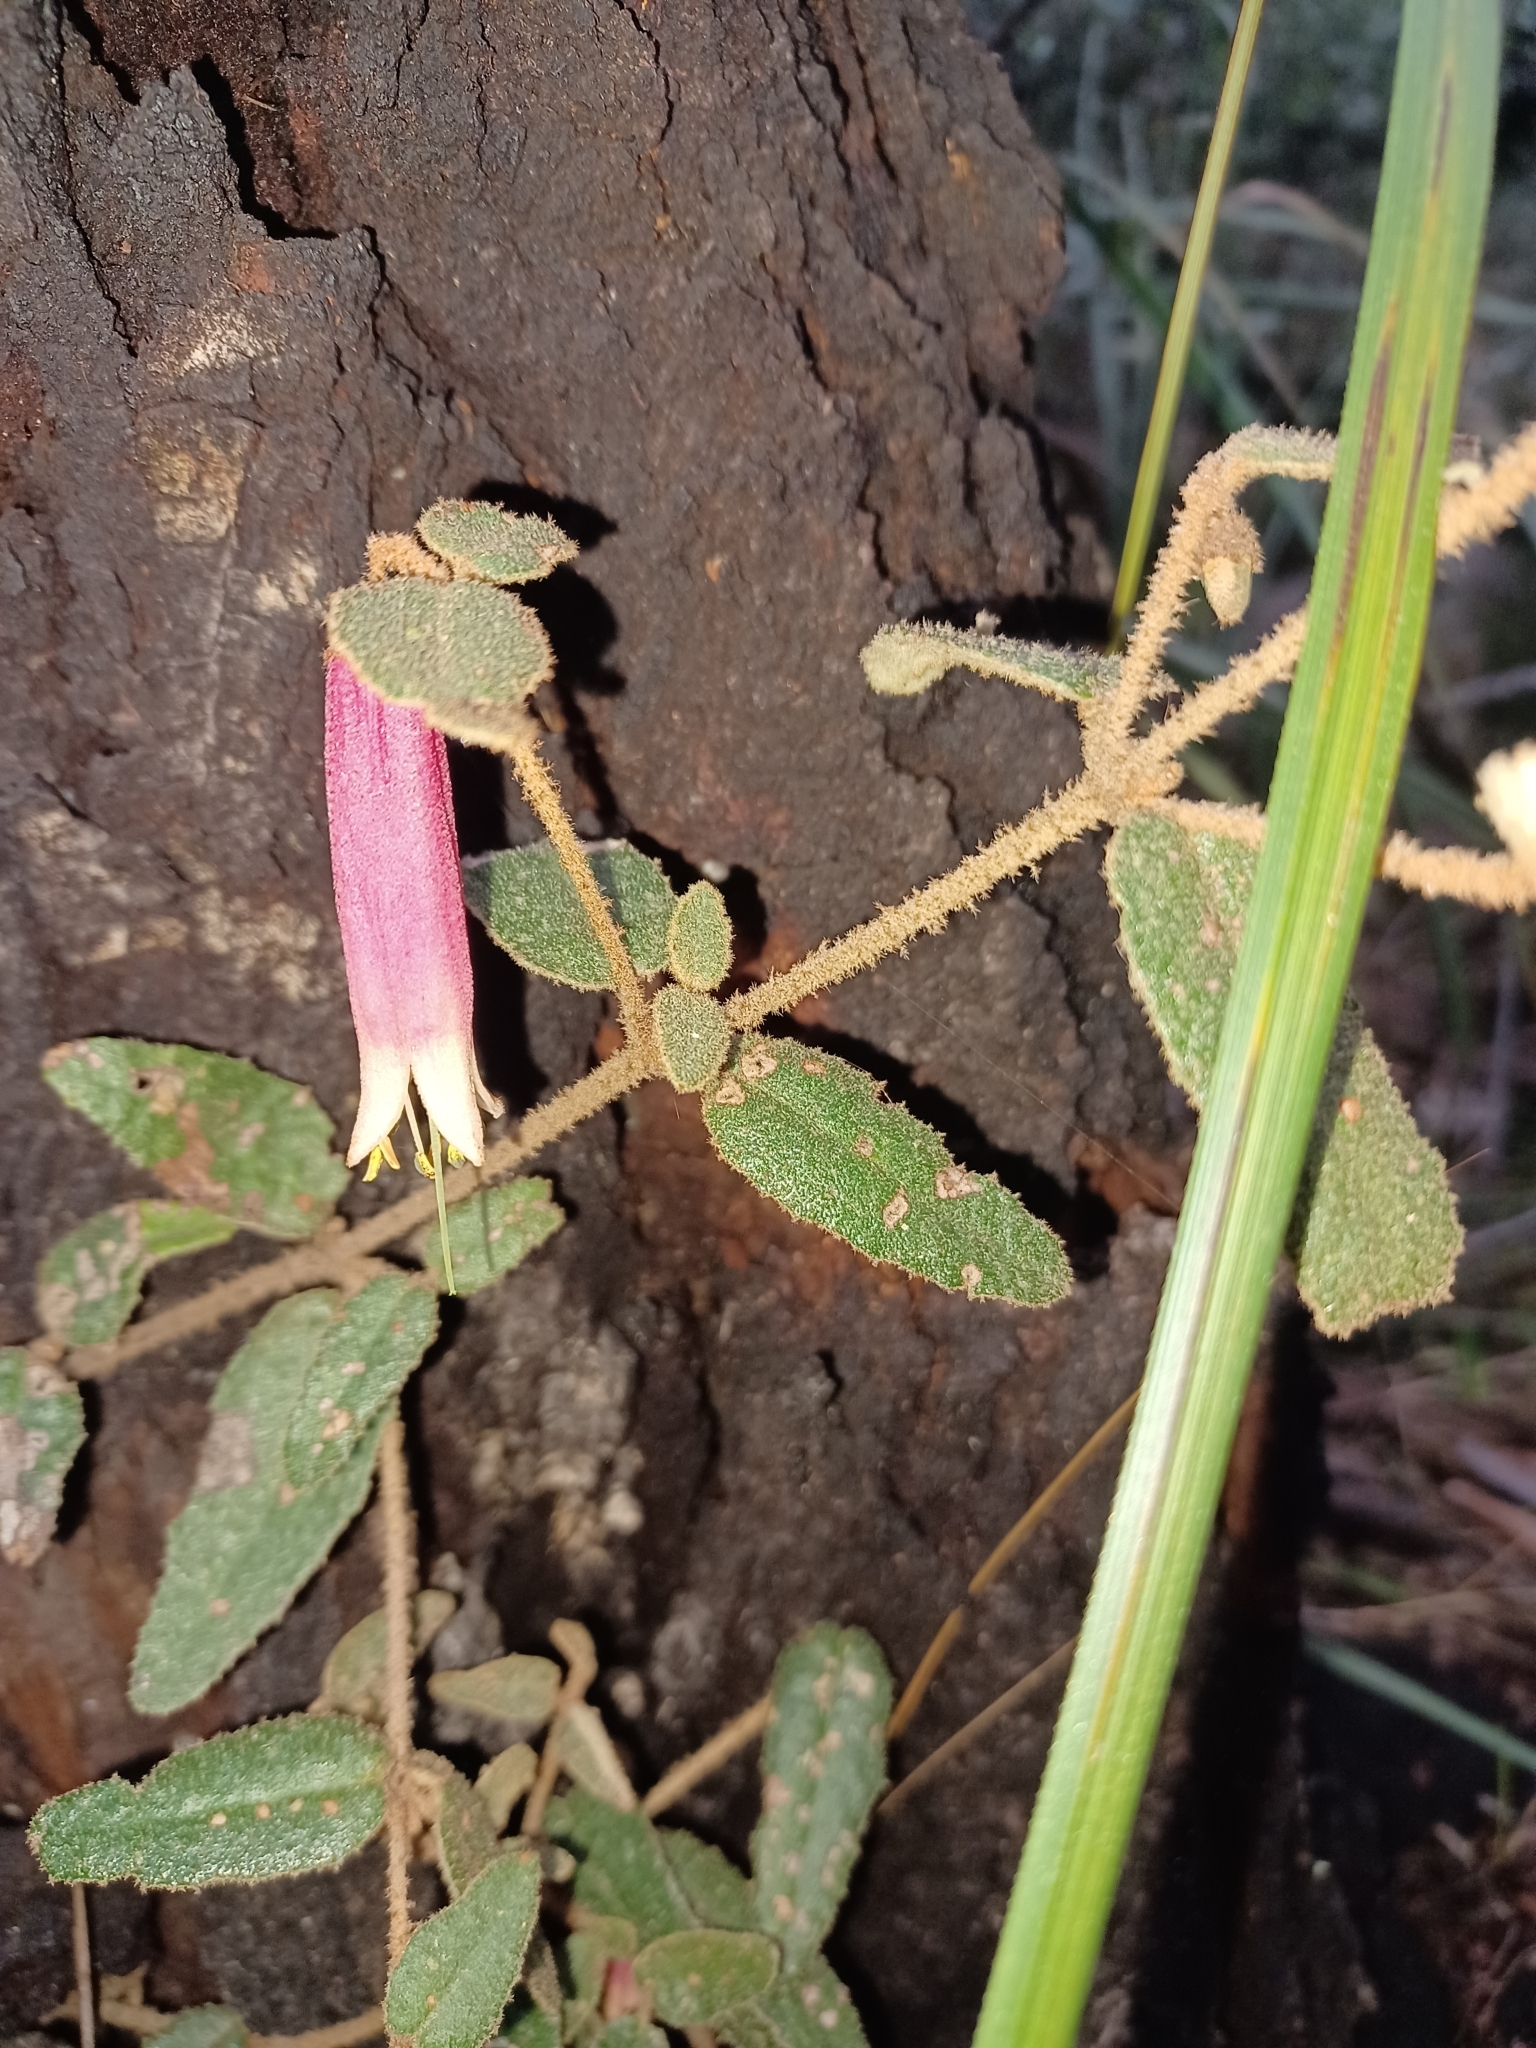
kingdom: Plantae
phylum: Tracheophyta
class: Magnoliopsida
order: Sapindales
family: Rutaceae
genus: Correa
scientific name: Correa reflexa
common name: Common correa
